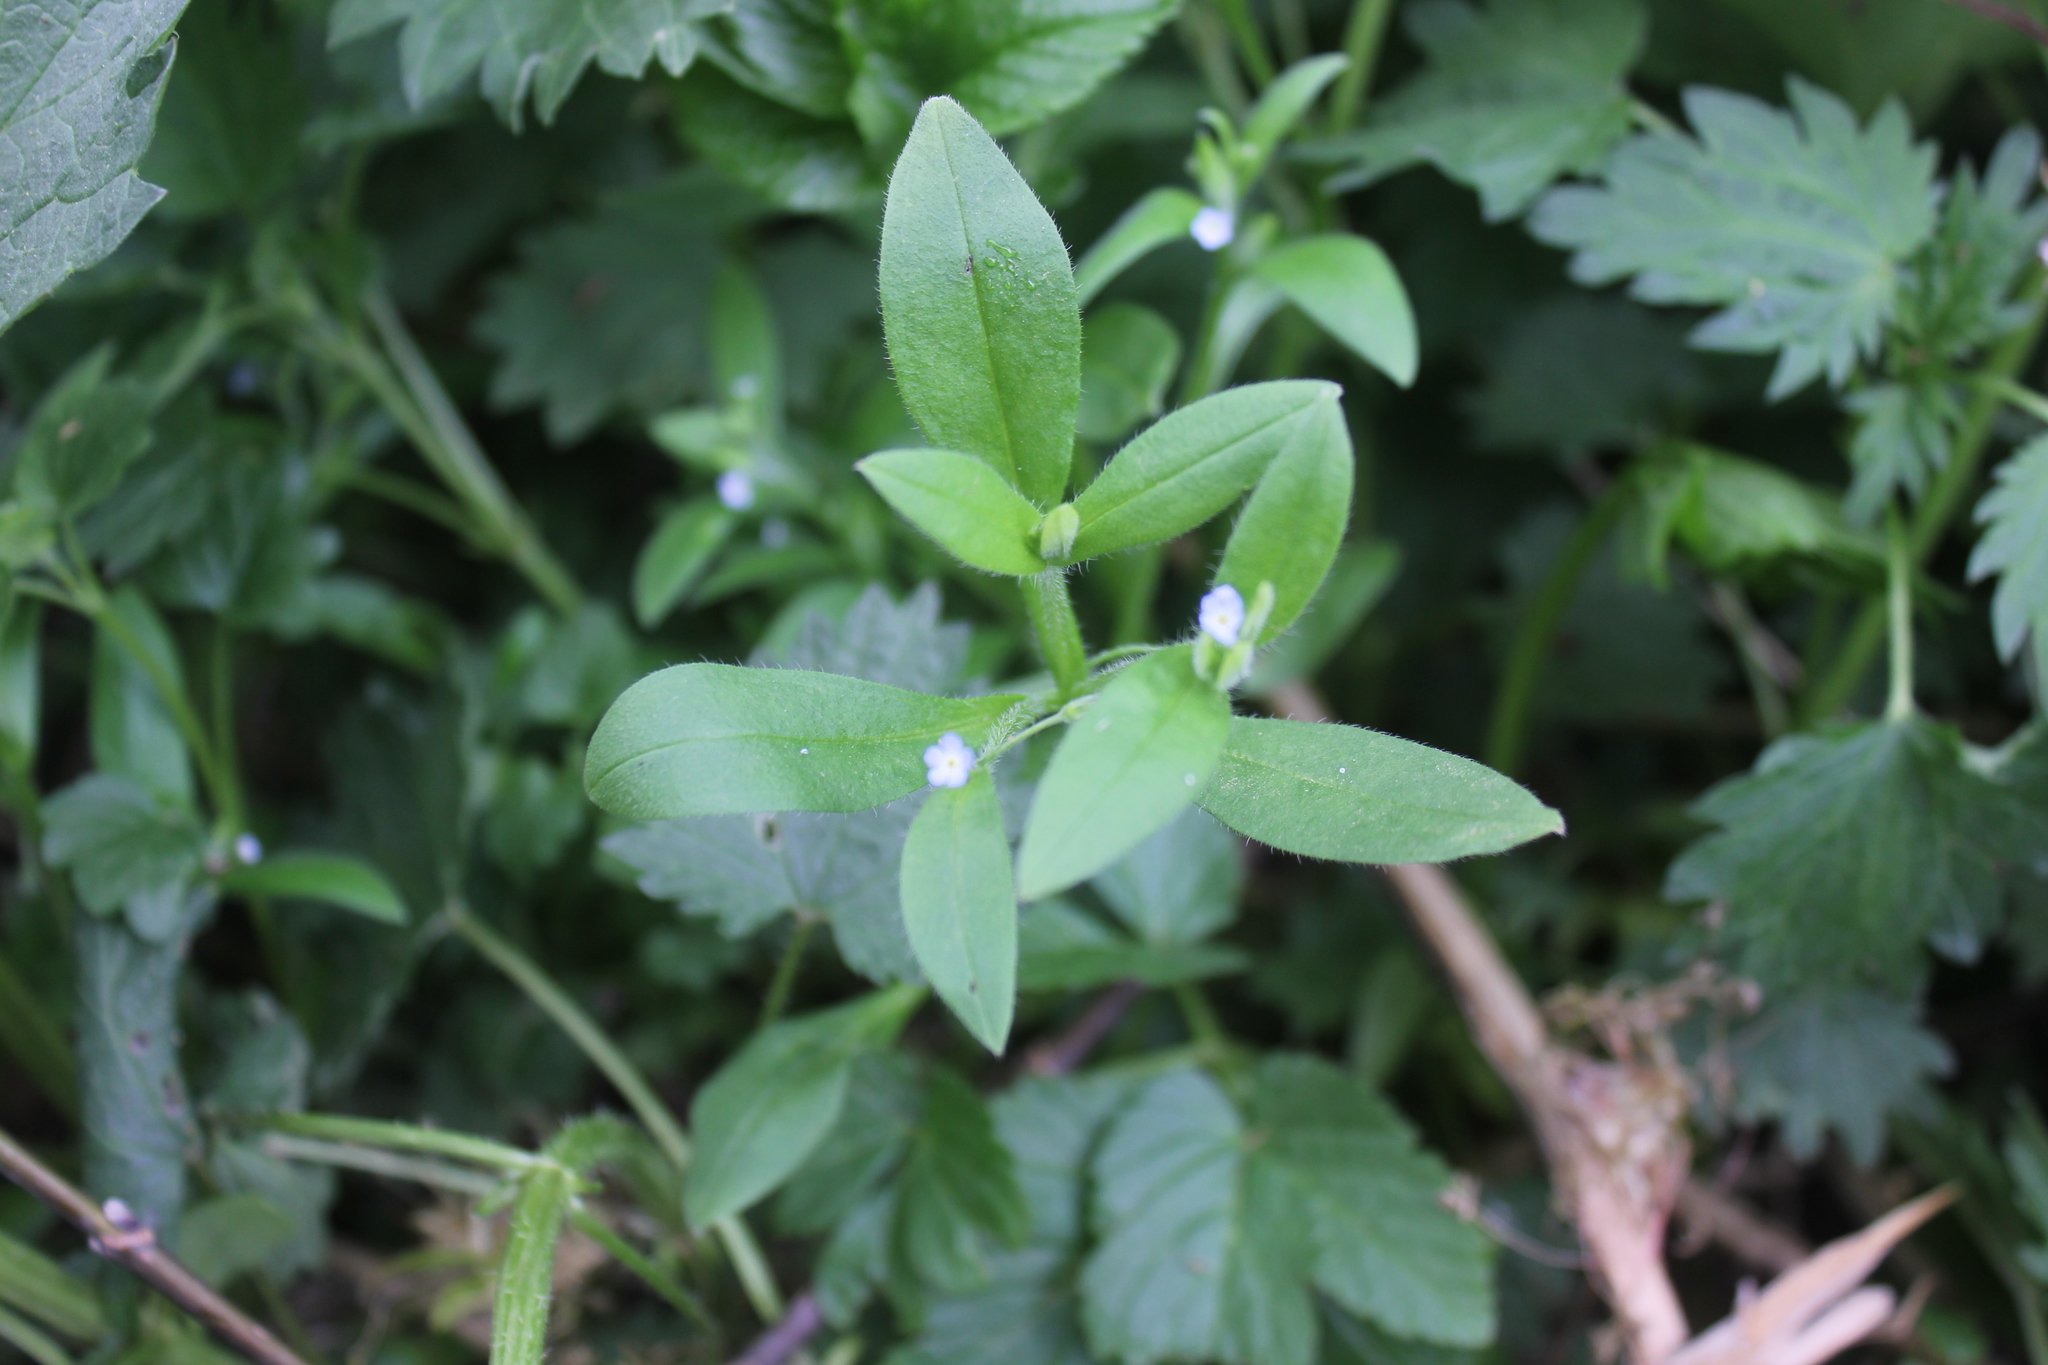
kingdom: Plantae
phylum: Tracheophyta
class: Magnoliopsida
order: Boraginales
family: Boraginaceae
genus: Myosotis
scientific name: Myosotis sparsiflora
